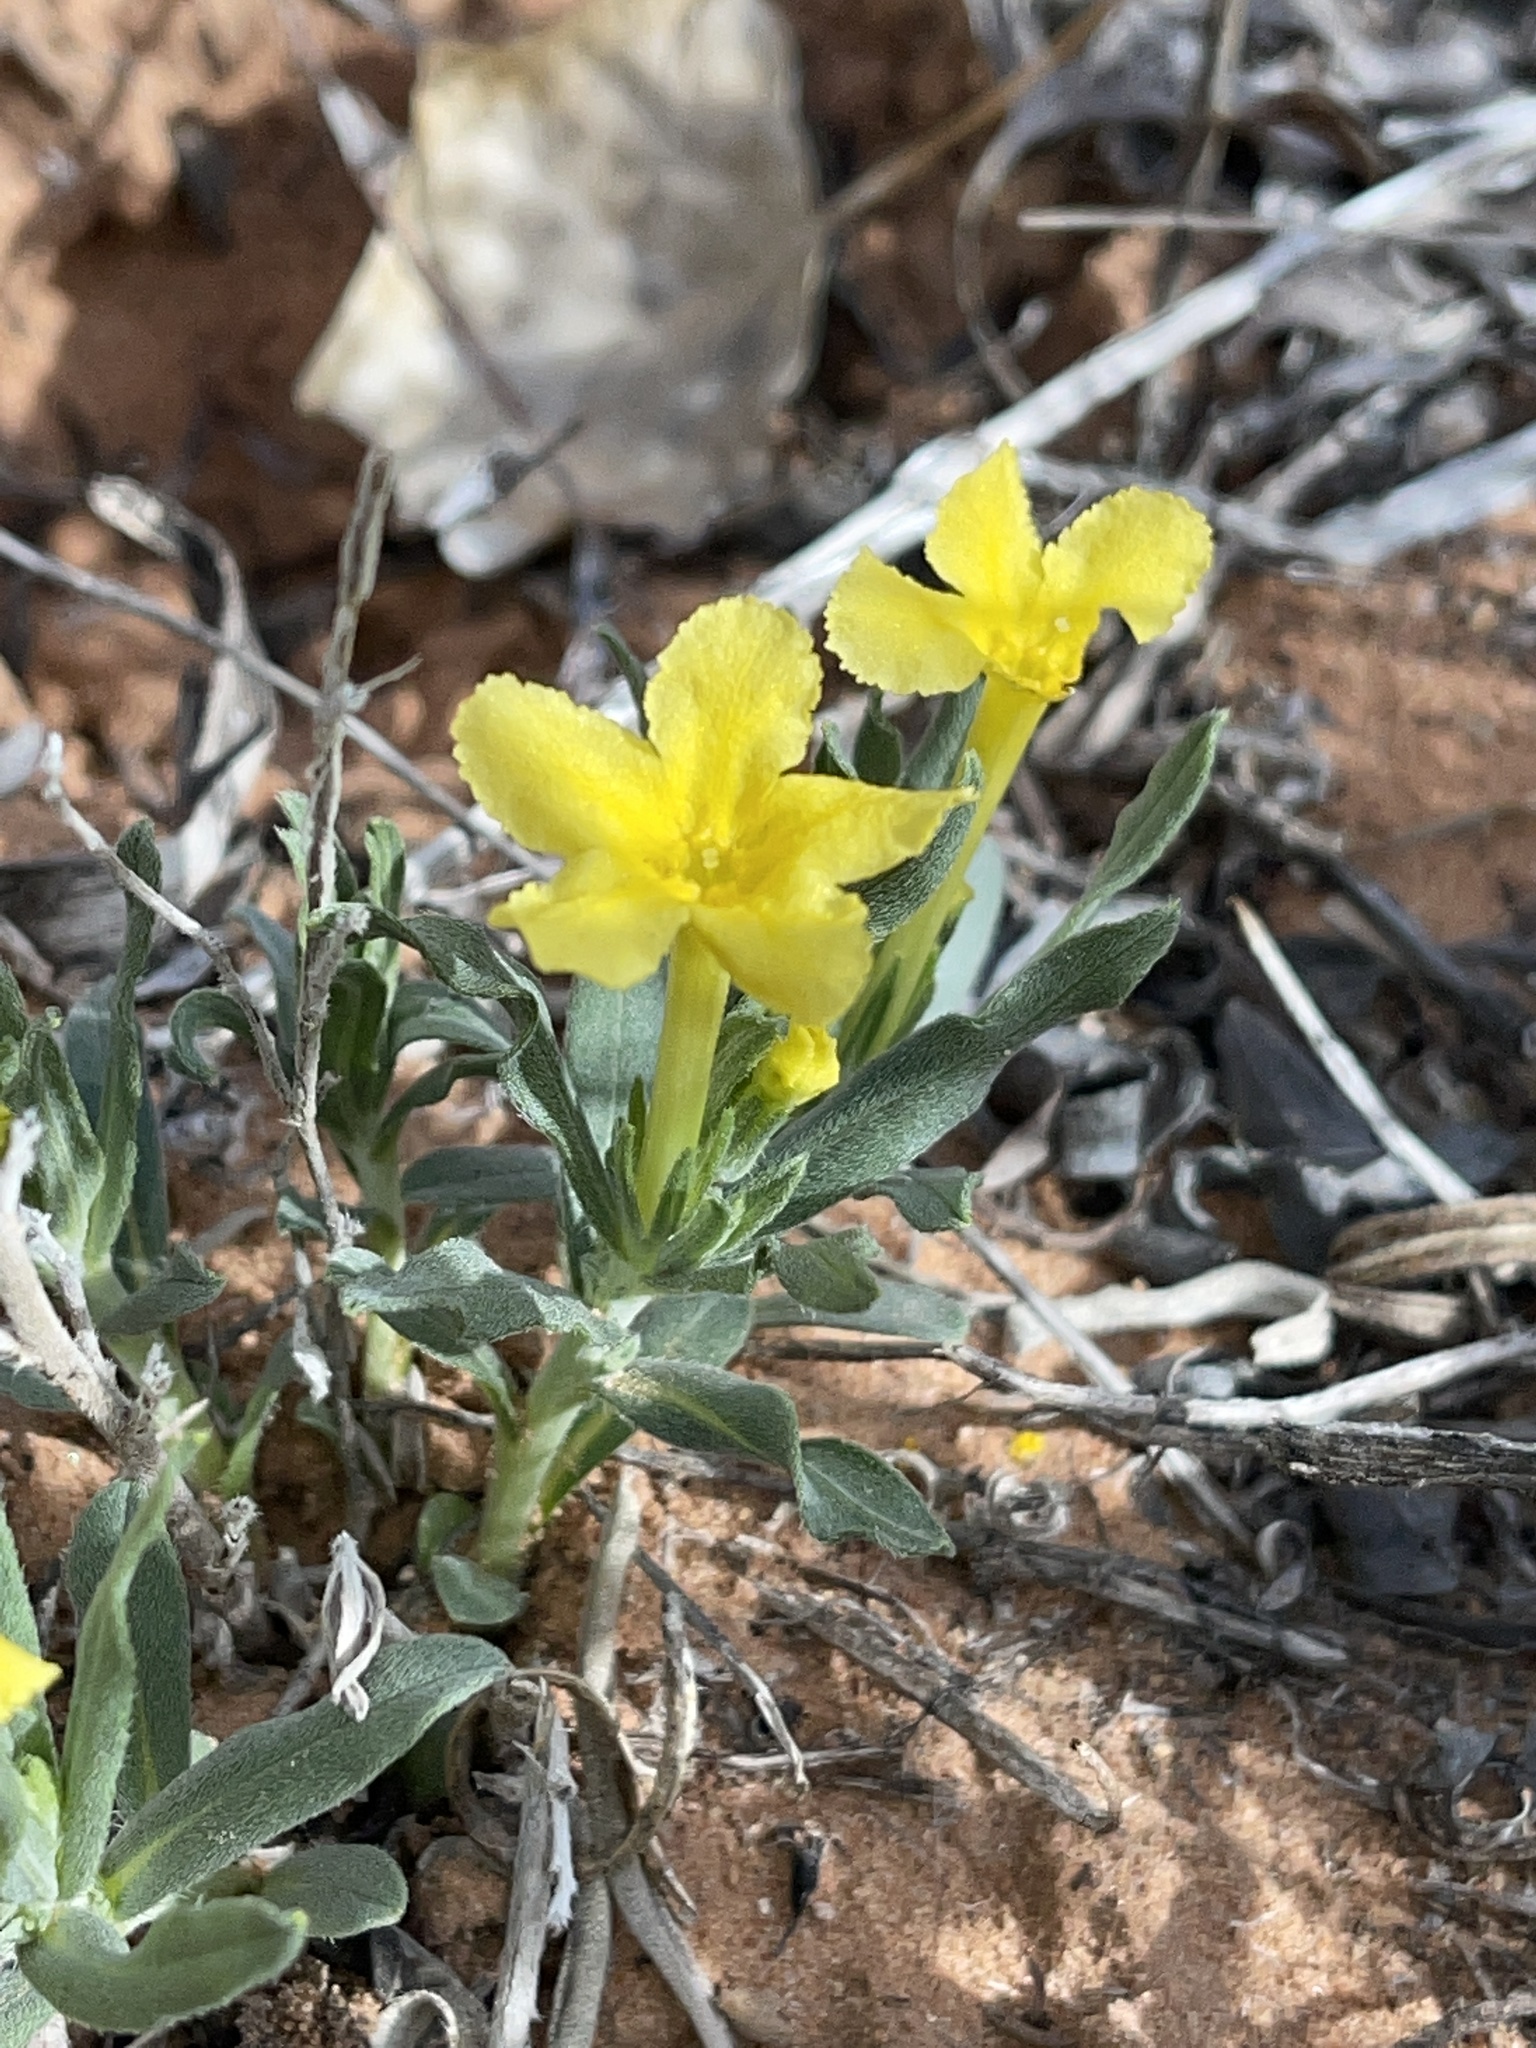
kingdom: Plantae
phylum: Tracheophyta
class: Magnoliopsida
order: Boraginales
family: Boraginaceae
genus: Lithospermum
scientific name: Lithospermum incisum
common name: Fringed gromwell
